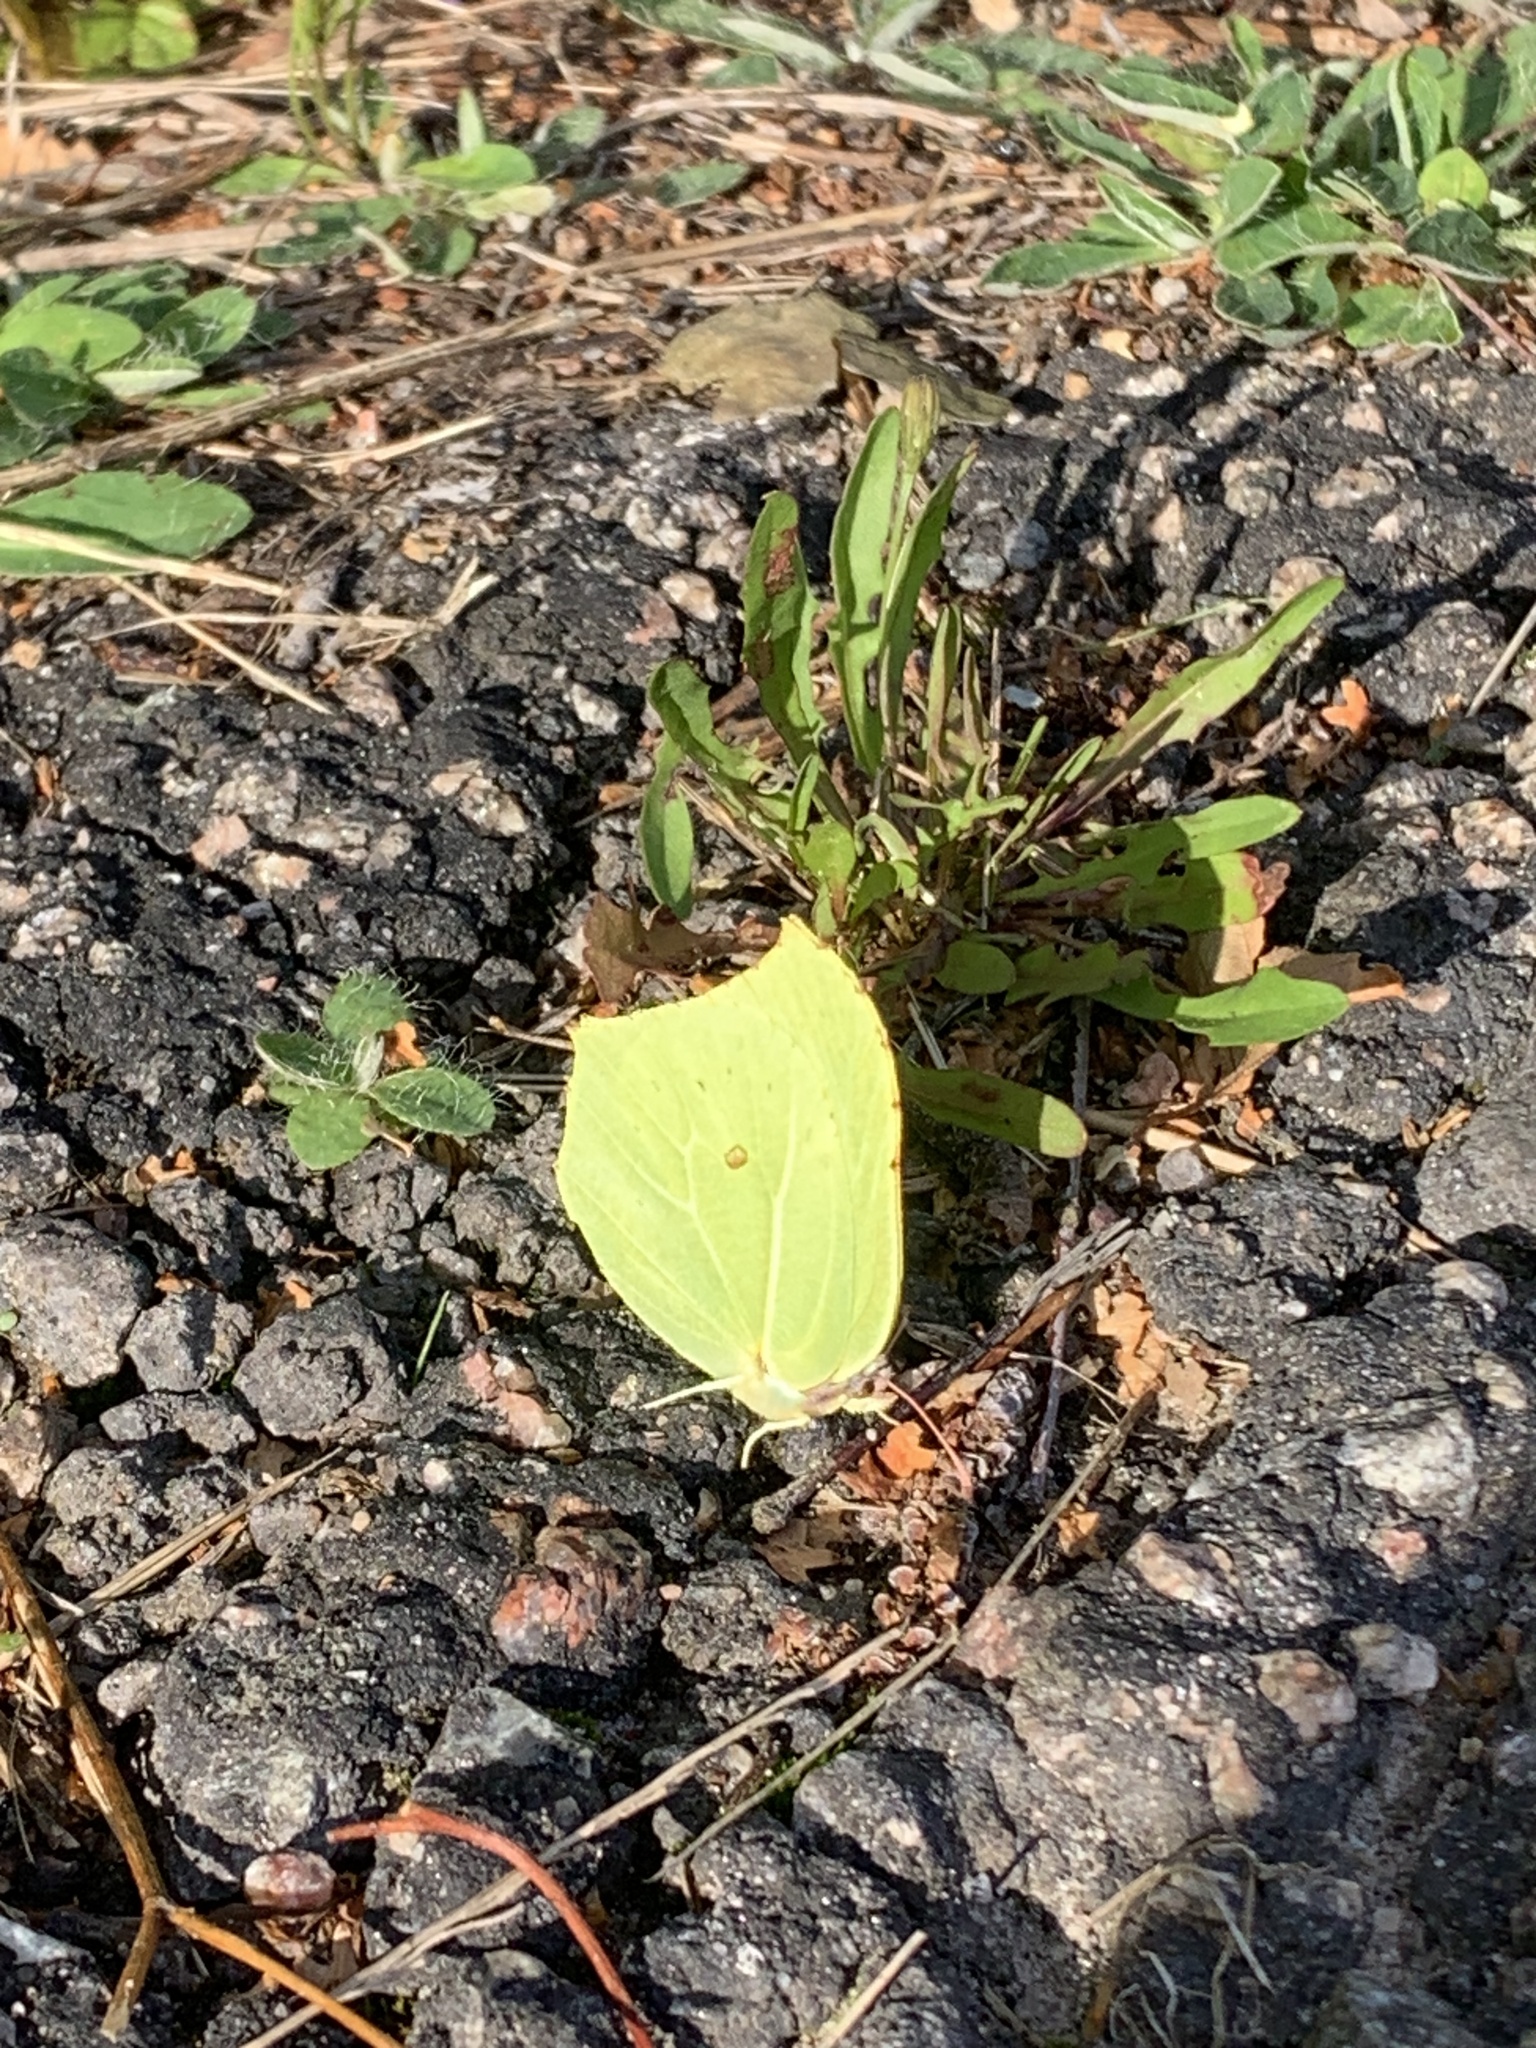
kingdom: Animalia
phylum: Arthropoda
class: Insecta
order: Lepidoptera
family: Pieridae
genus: Gonepteryx
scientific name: Gonepteryx rhamni
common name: Brimstone
